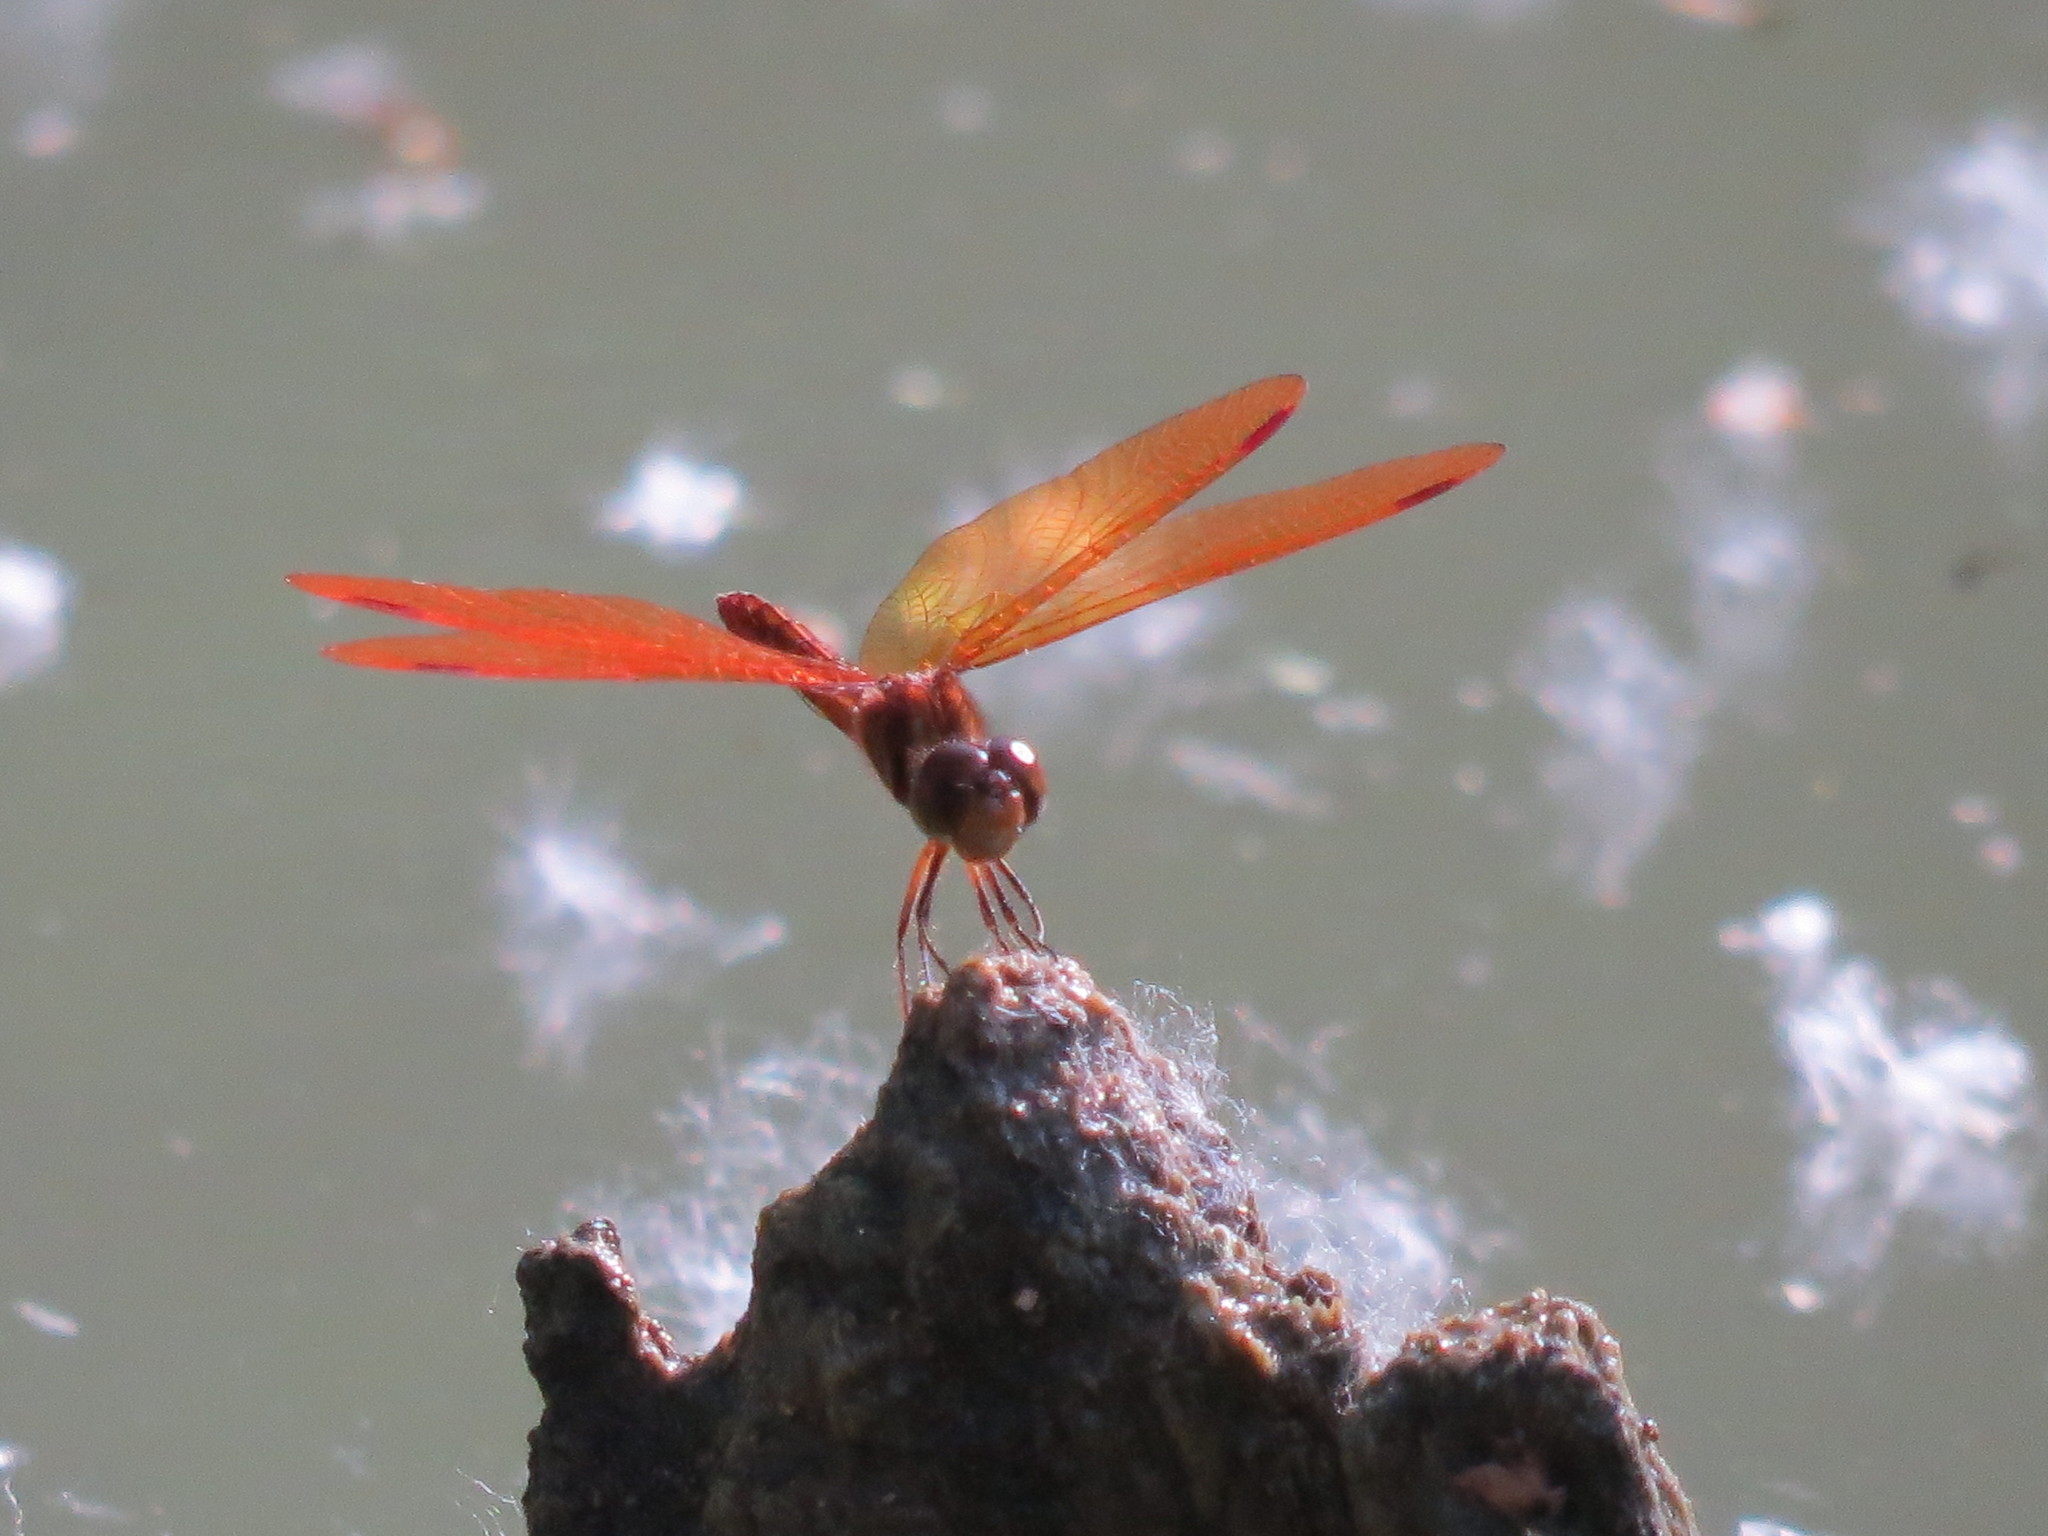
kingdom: Animalia
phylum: Arthropoda
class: Insecta
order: Odonata
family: Libellulidae
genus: Perithemis
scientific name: Perithemis tenera
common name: Eastern amberwing
